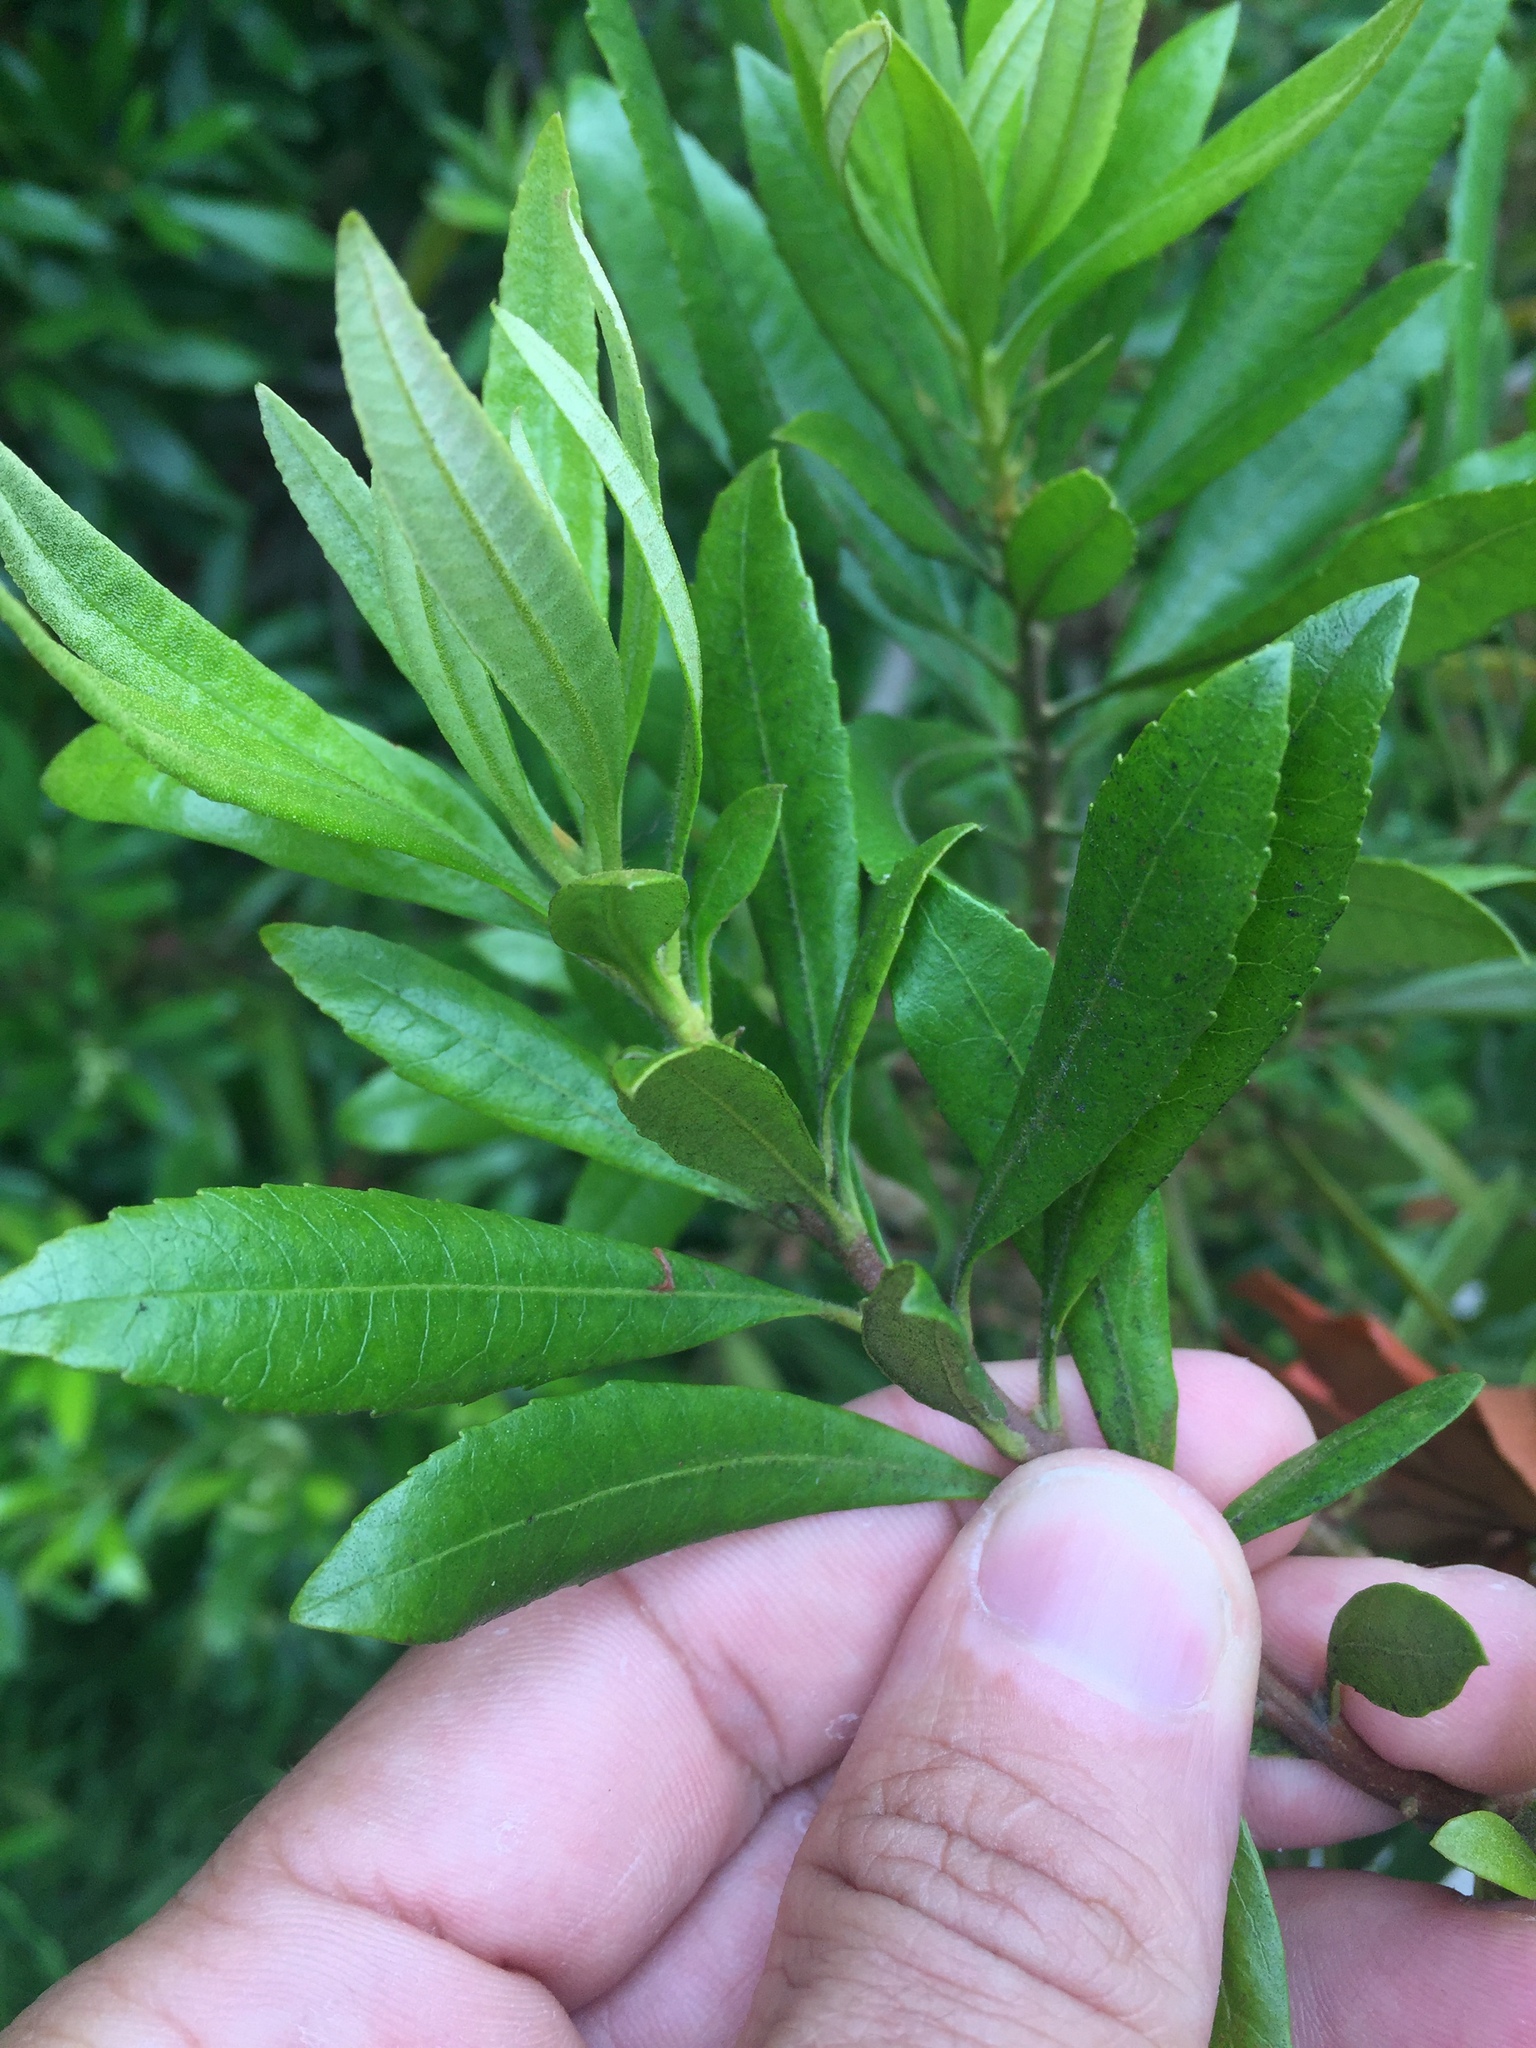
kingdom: Plantae
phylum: Tracheophyta
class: Magnoliopsida
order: Fagales
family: Myricaceae
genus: Morella
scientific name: Morella californica
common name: California wax-myrtle
